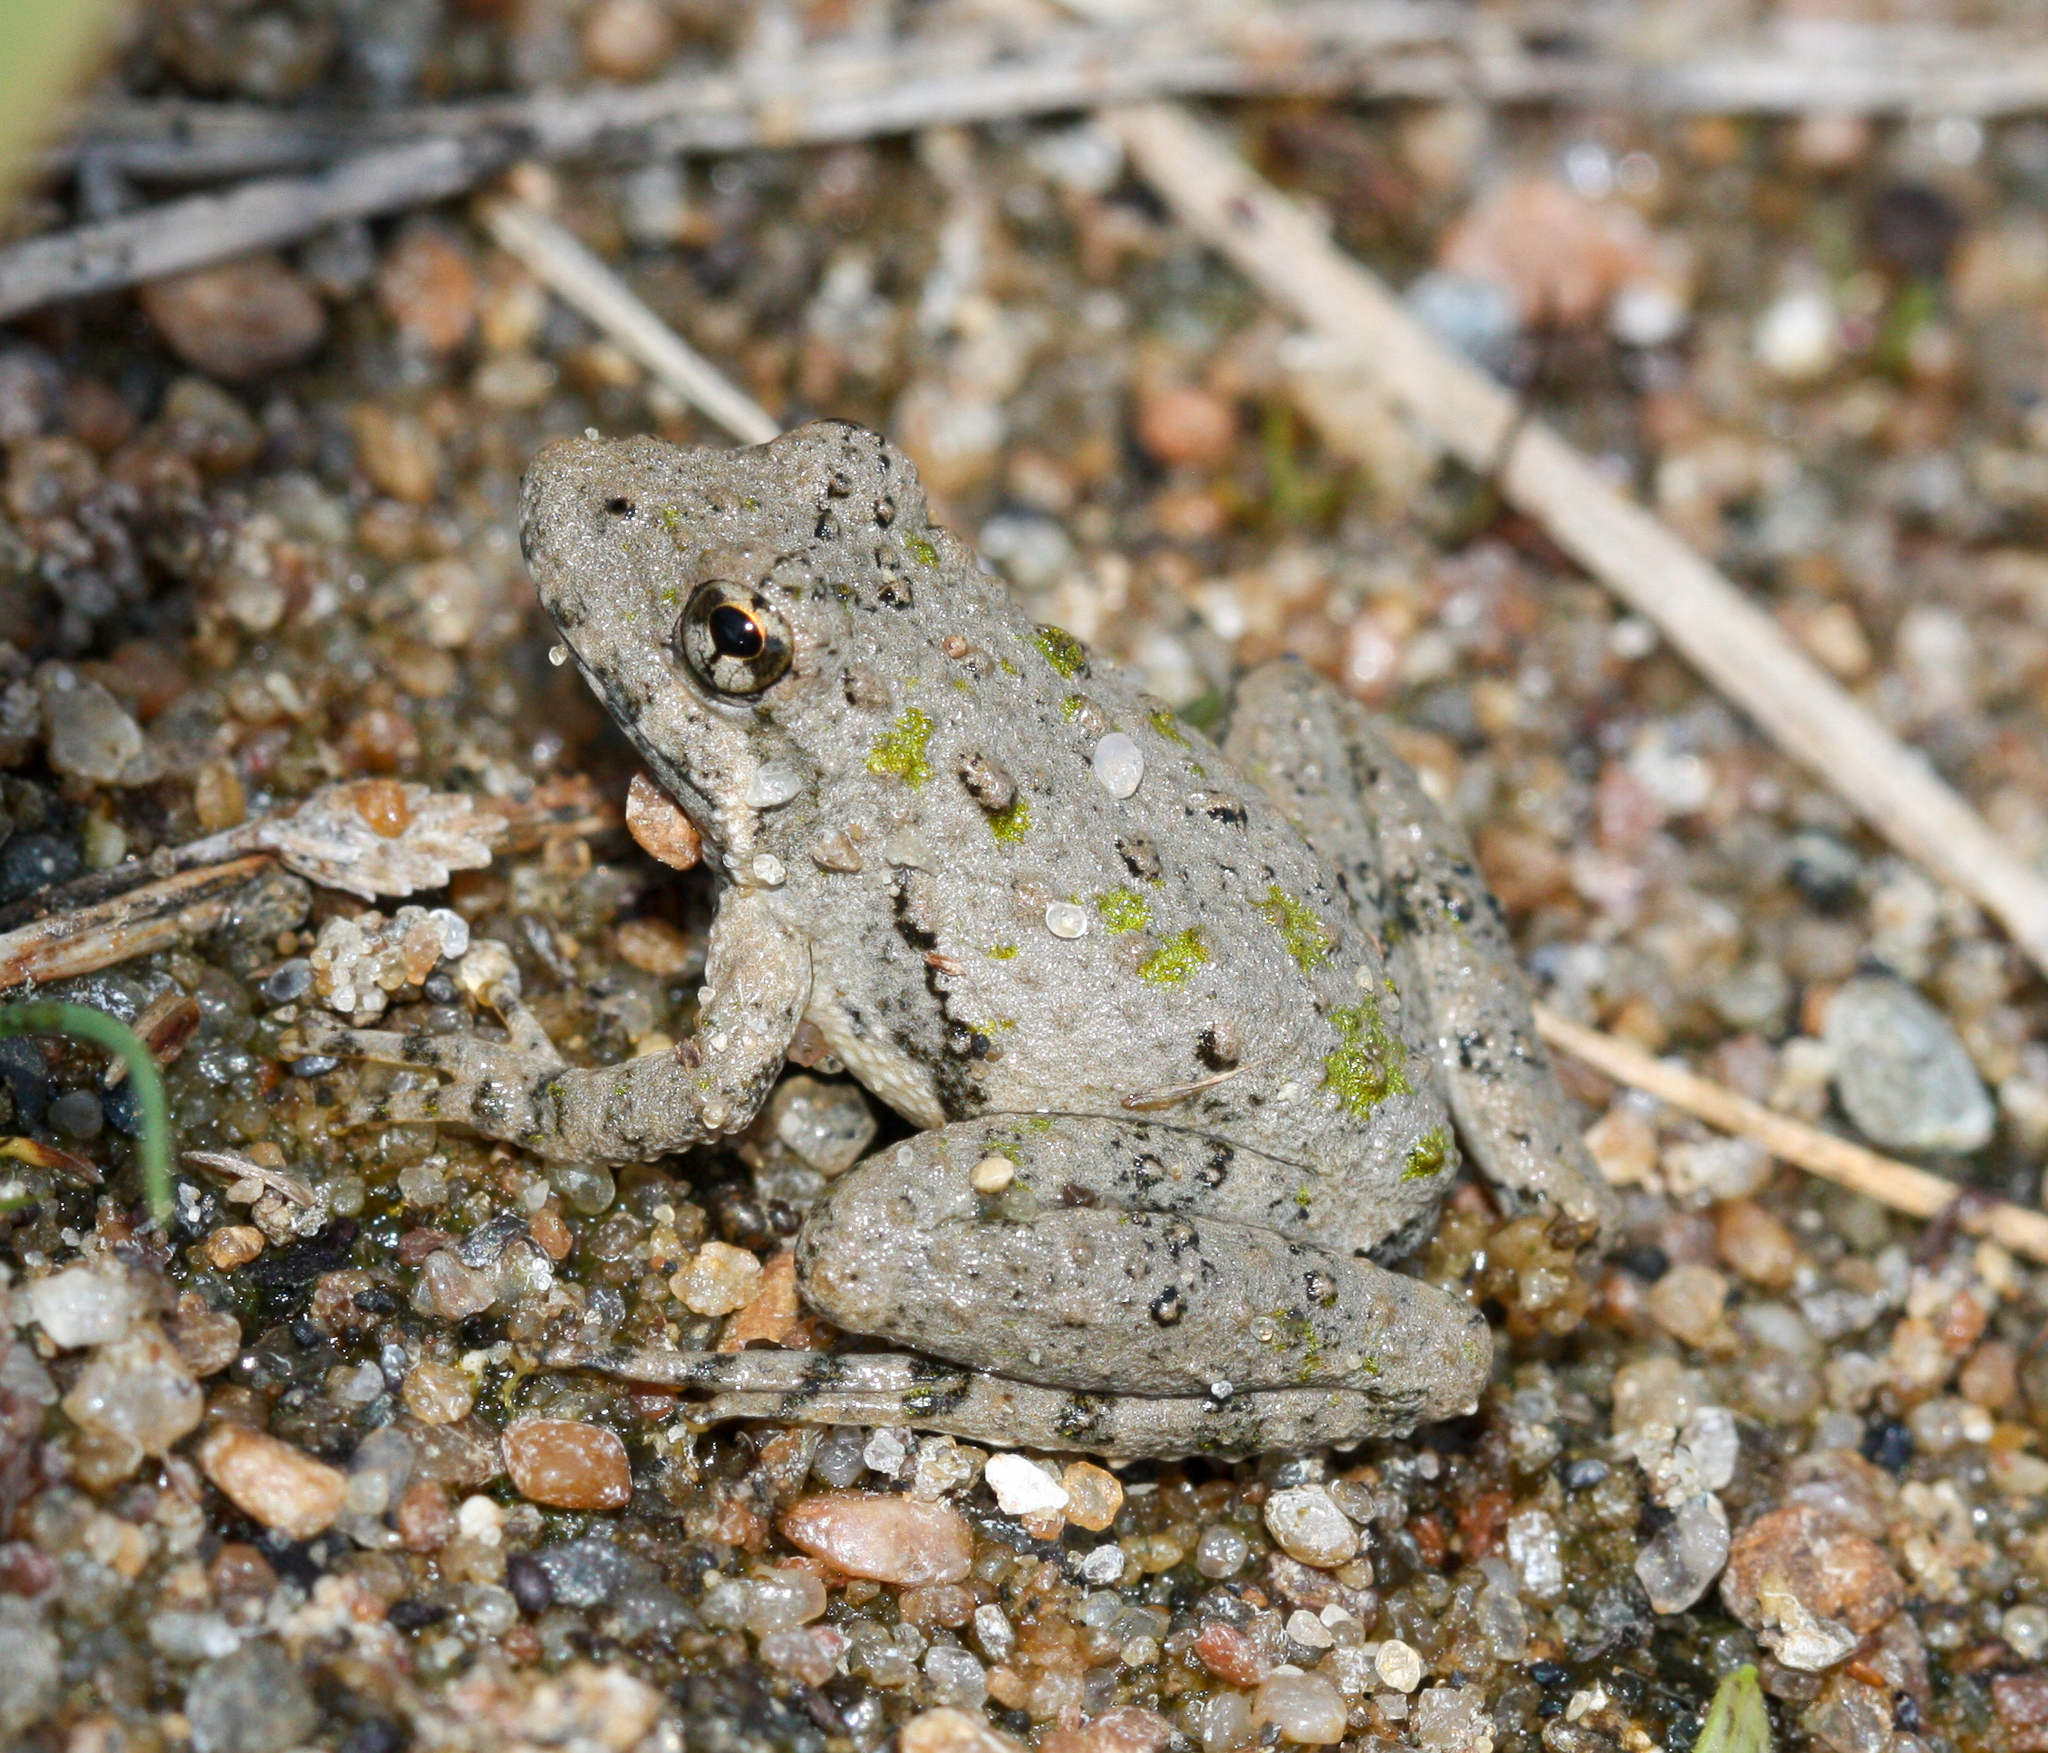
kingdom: Animalia
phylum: Chordata
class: Amphibia
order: Anura
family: Hylidae
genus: Acris
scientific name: Acris blanchardi
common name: Blanchard's cricket frog
